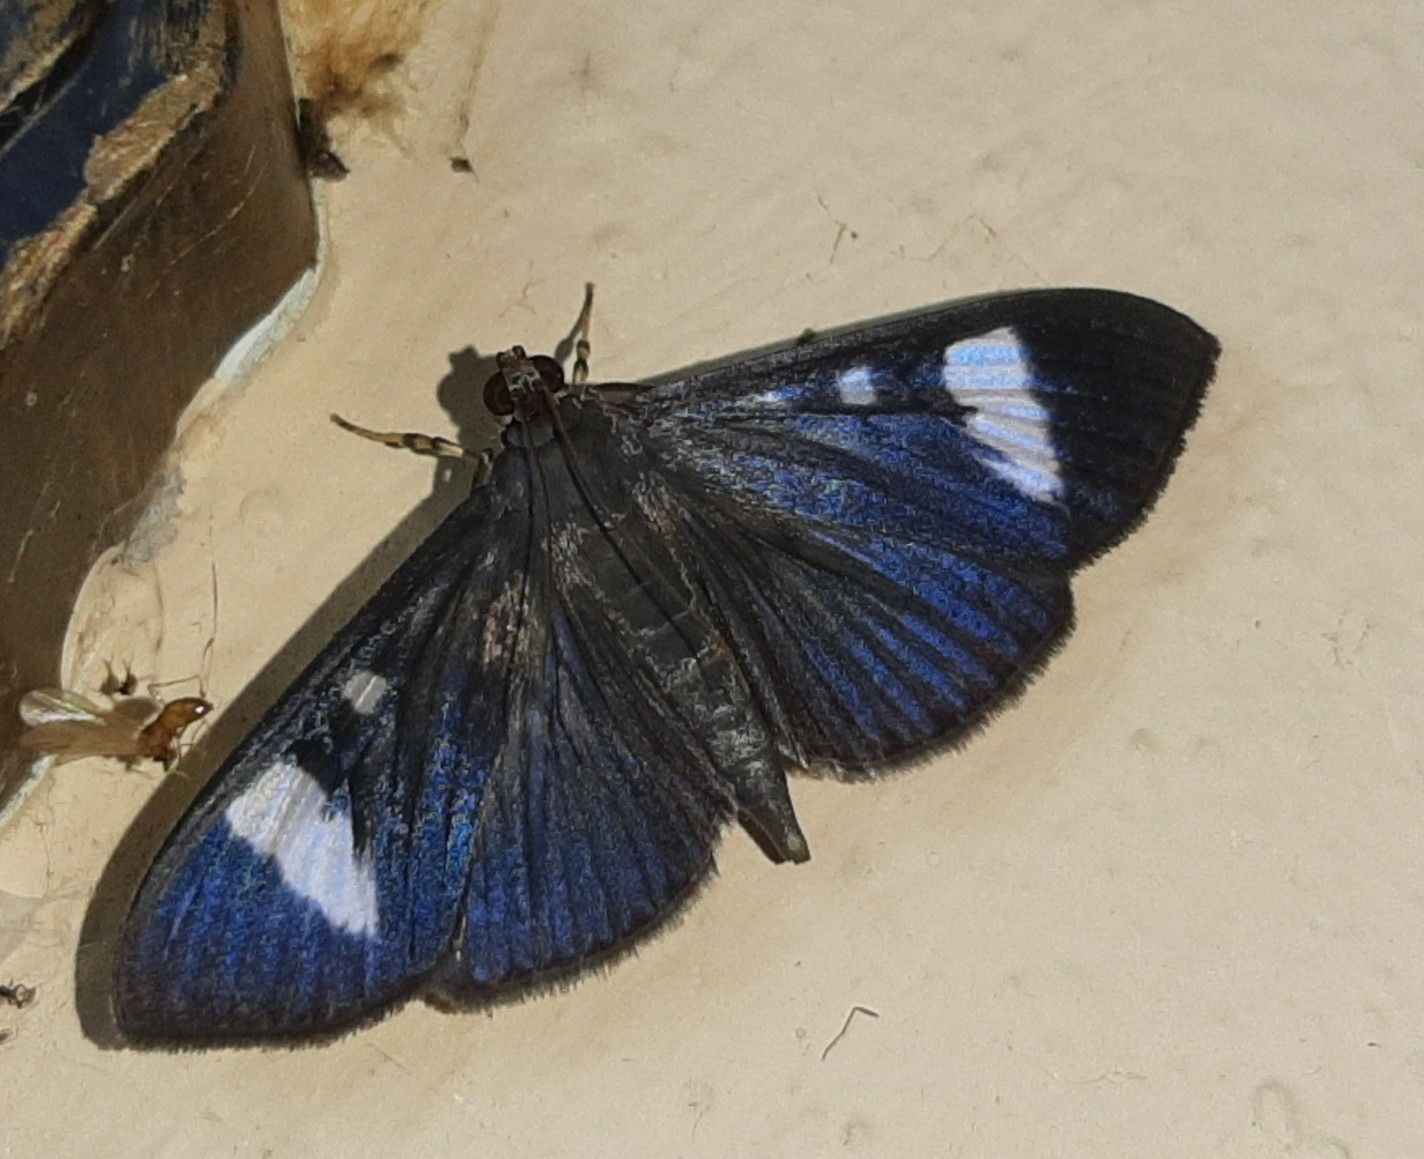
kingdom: Animalia
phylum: Arthropoda
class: Insecta
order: Lepidoptera
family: Crambidae
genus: Phostria
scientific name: Phostria Erilusa leucoplagialis
